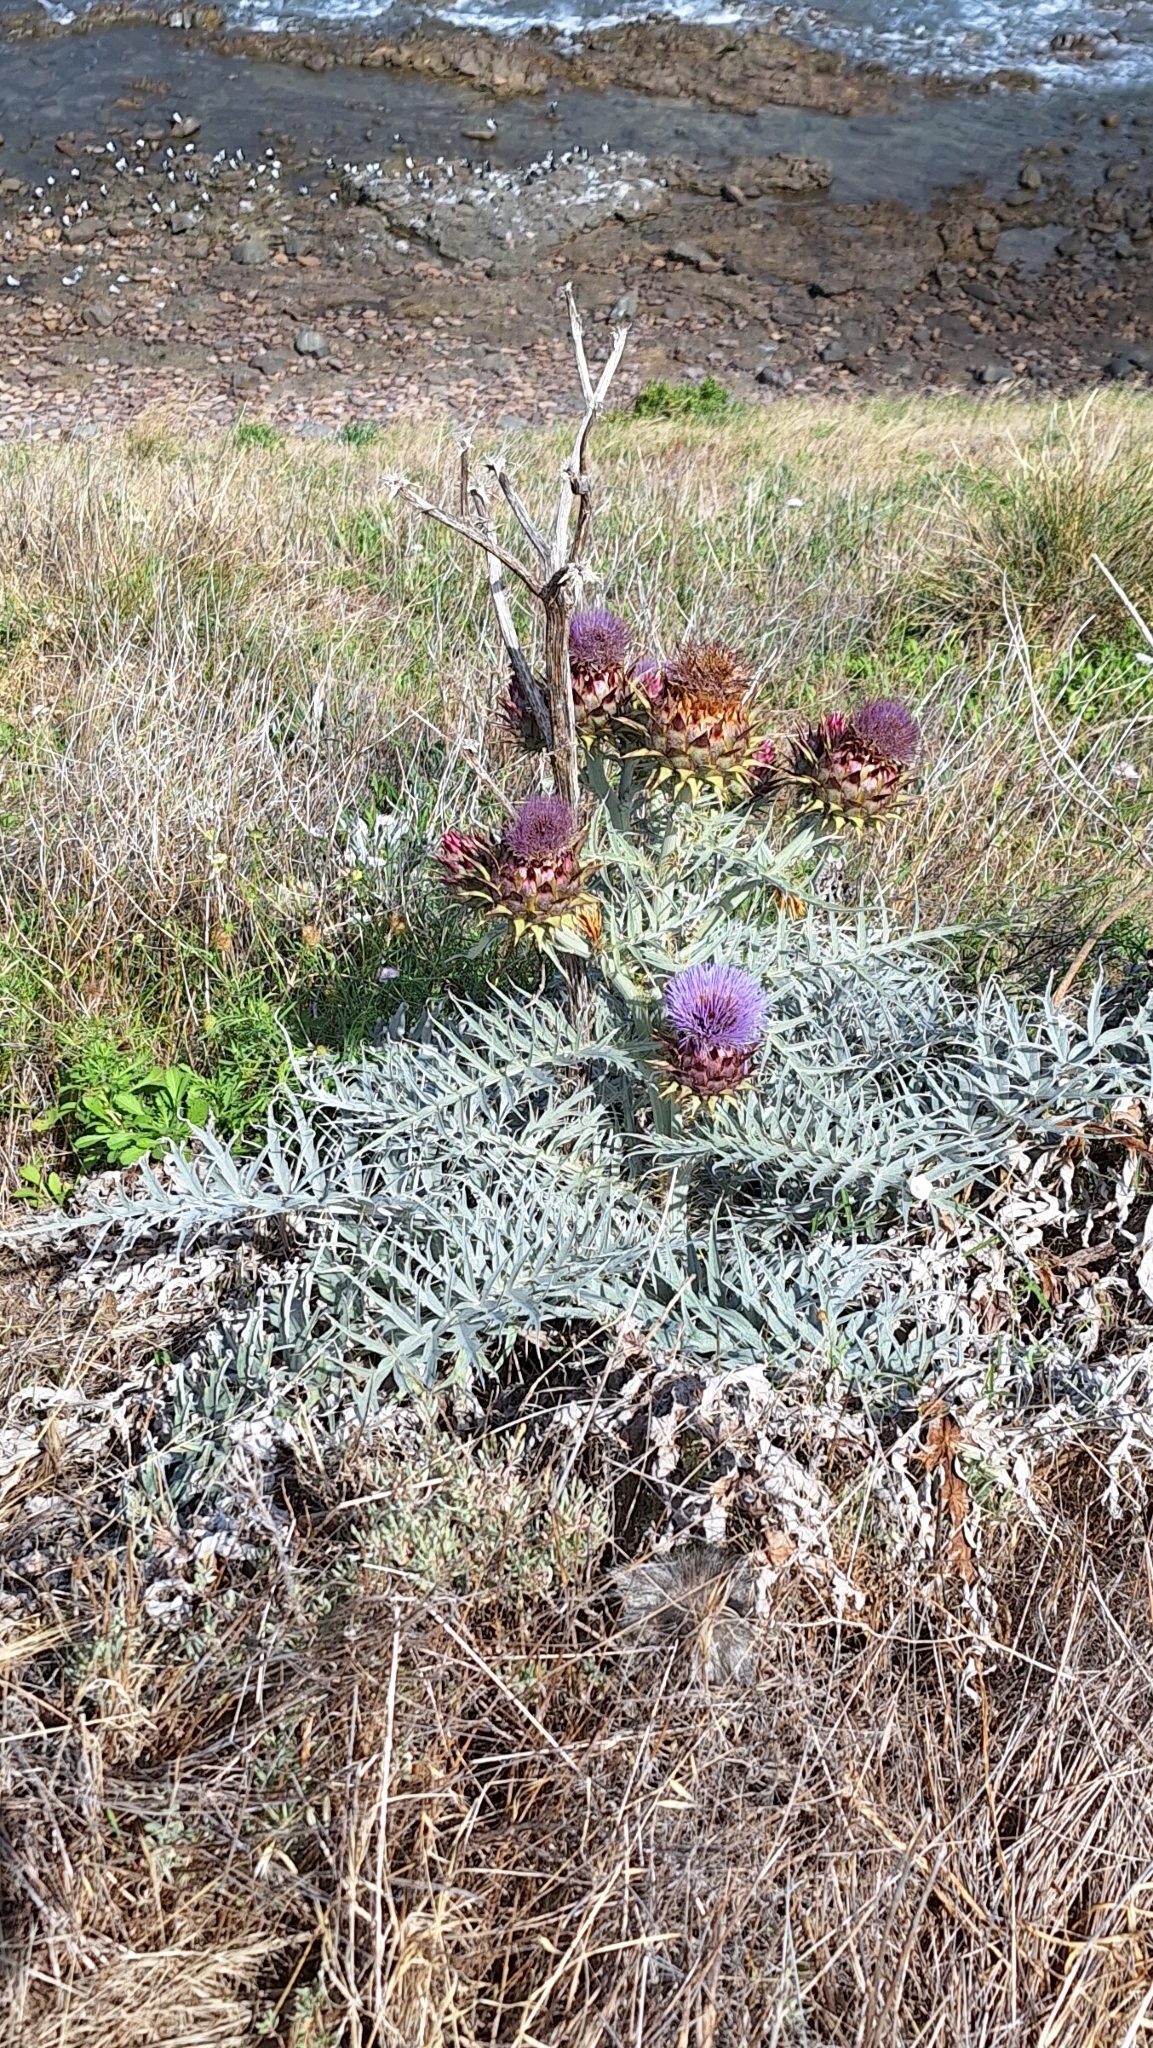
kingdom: Plantae
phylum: Tracheophyta
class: Magnoliopsida
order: Asterales
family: Asteraceae
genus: Cynara
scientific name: Cynara cardunculus
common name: Globe artichoke
